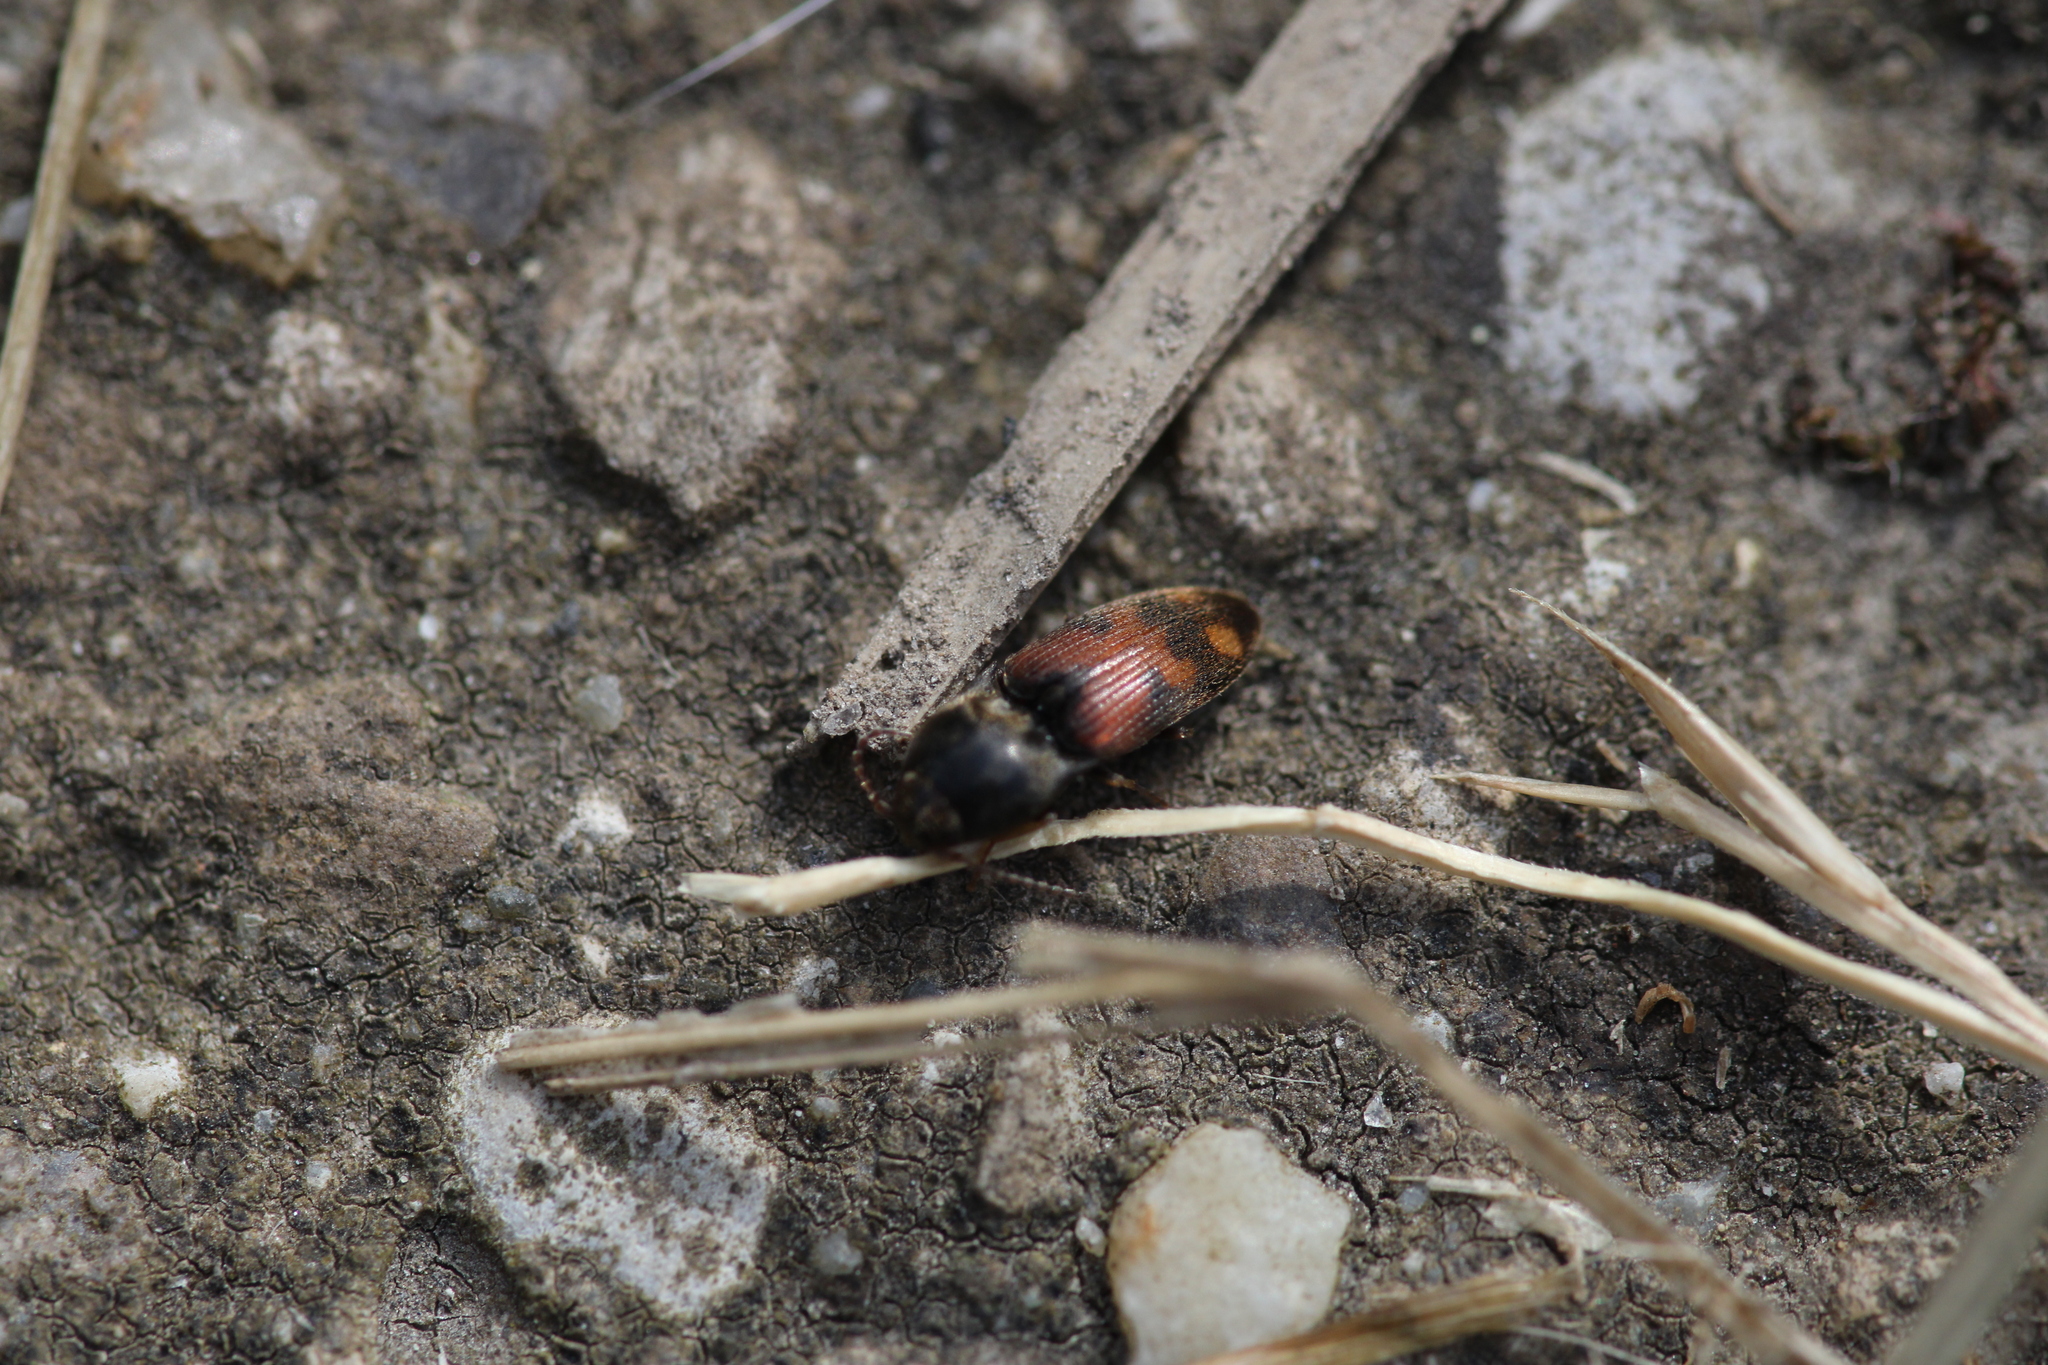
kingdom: Animalia
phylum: Arthropoda
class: Insecta
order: Coleoptera
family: Elateridae
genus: Drasterius
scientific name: Drasterius bimaculatus
